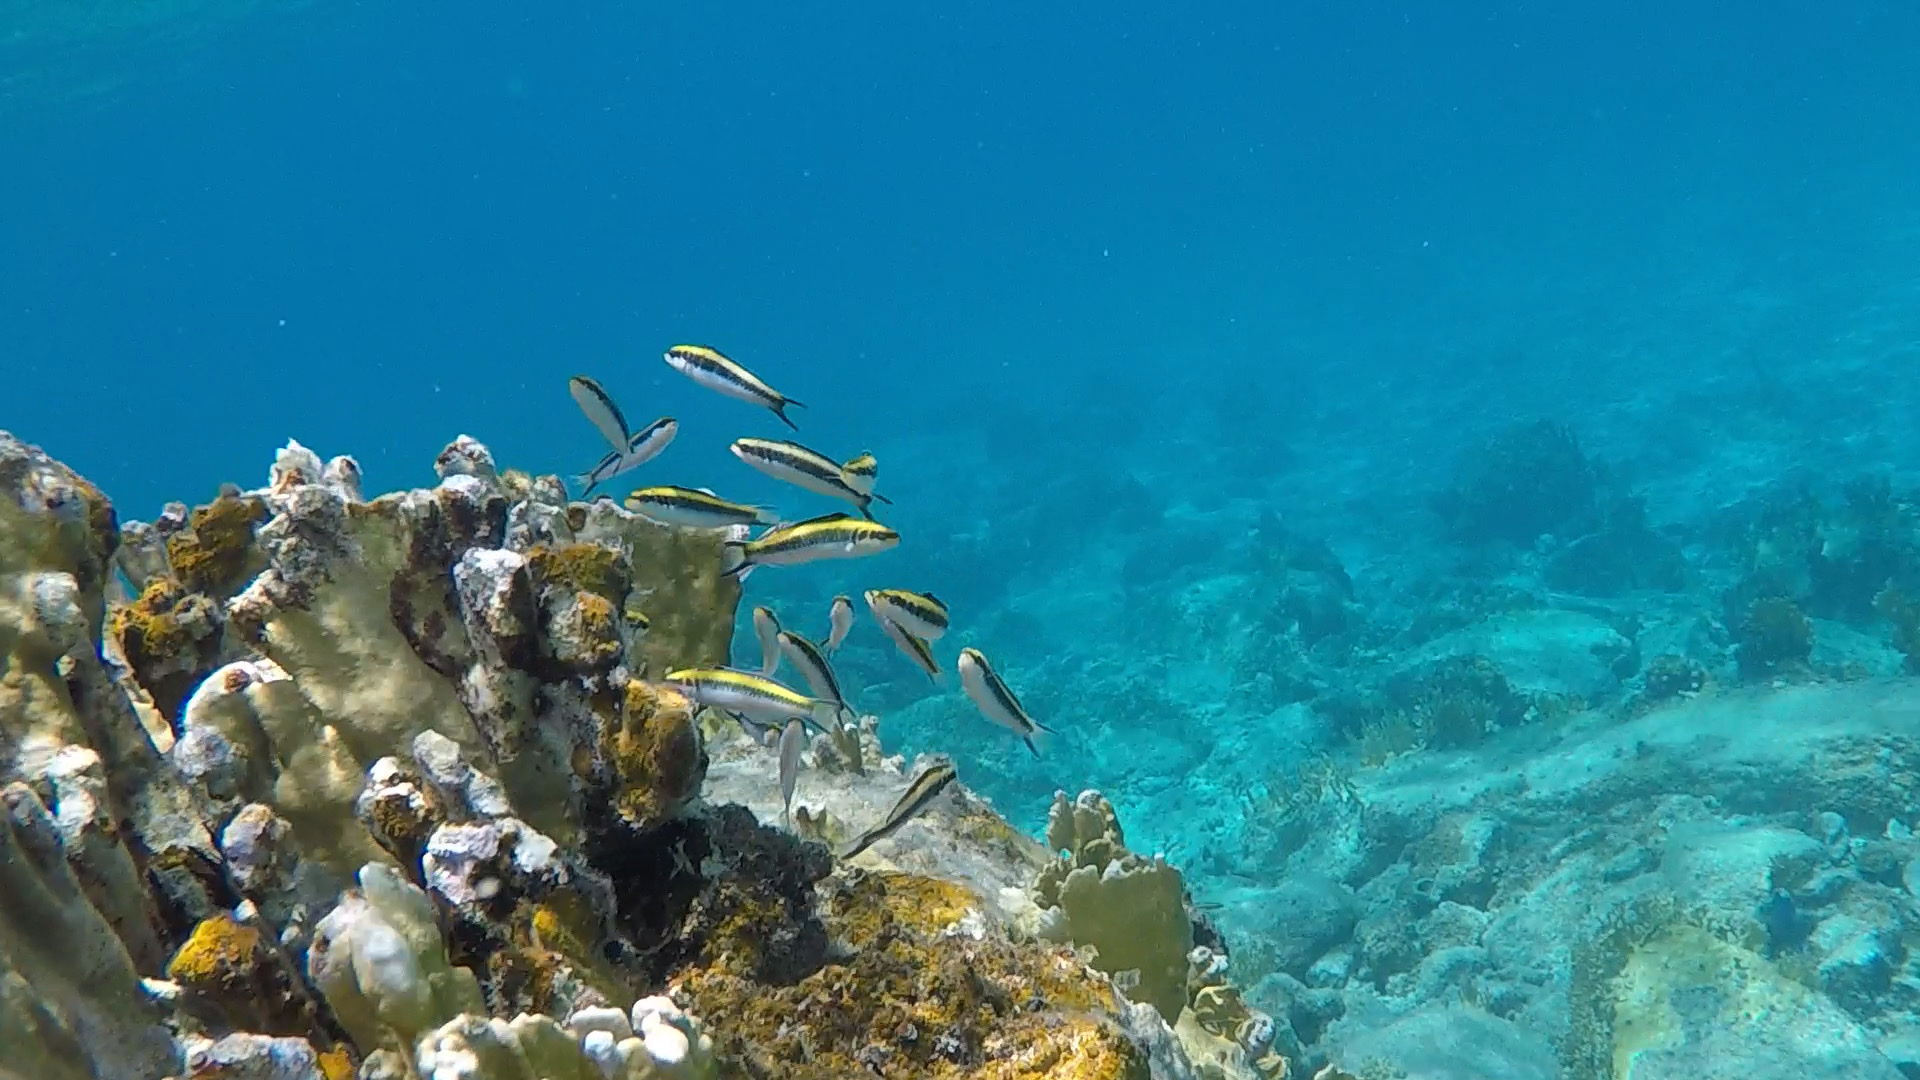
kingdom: Animalia
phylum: Chordata
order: Perciformes
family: Labridae
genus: Thalassoma
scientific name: Thalassoma bifasciatum
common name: Bluehead wrasse
